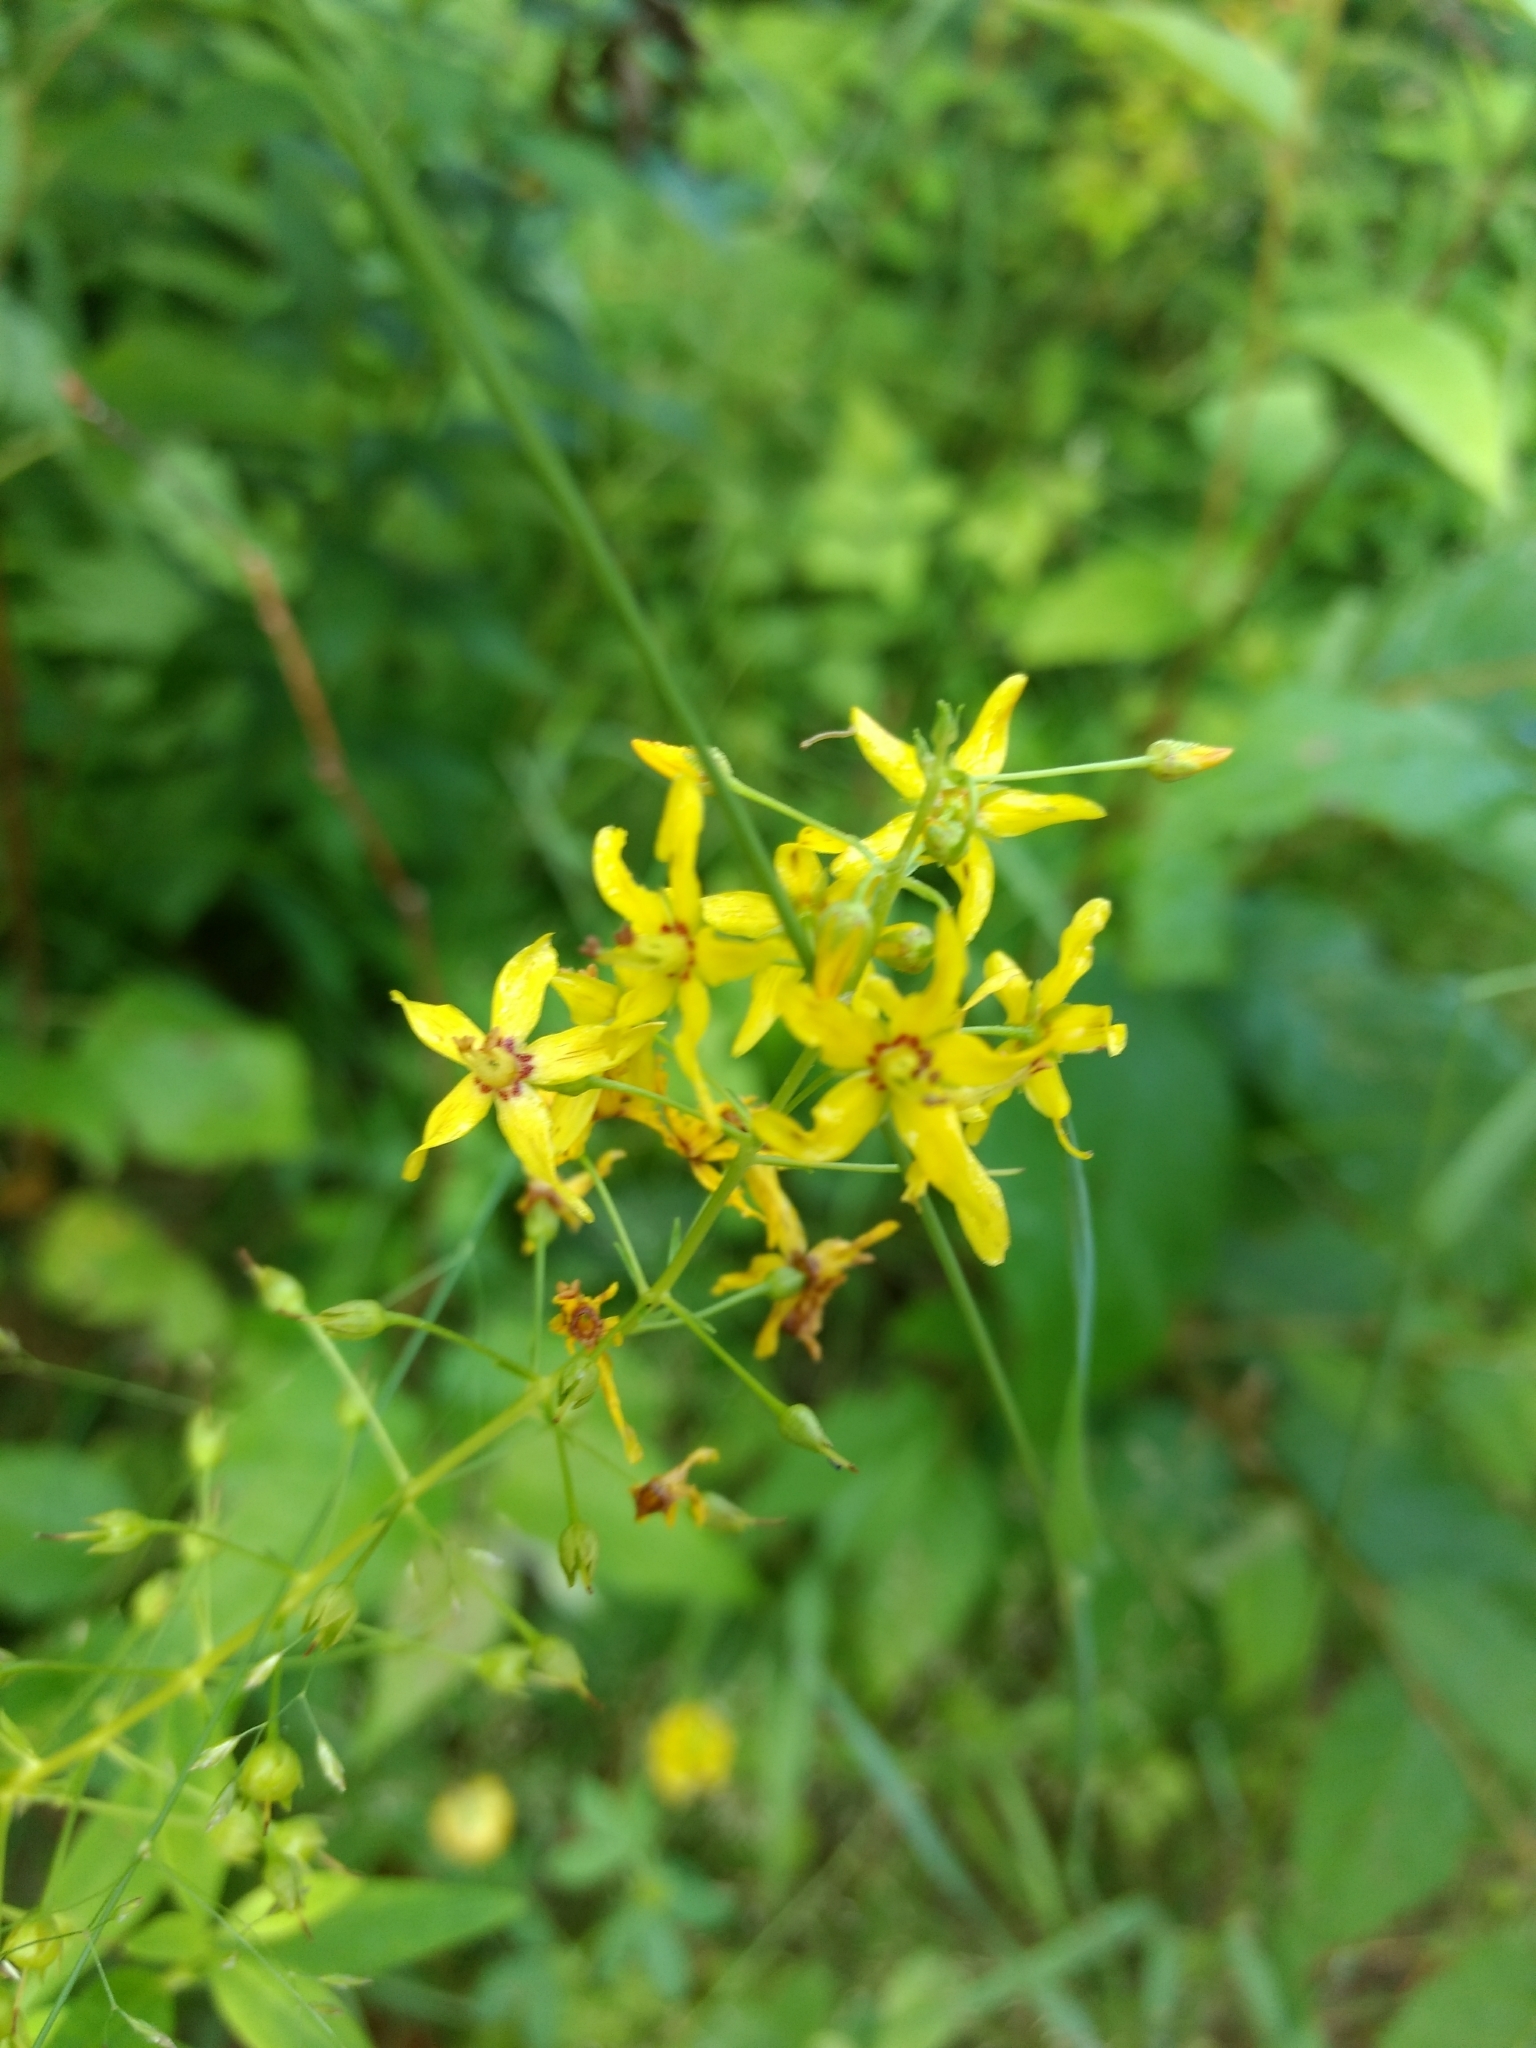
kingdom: Plantae
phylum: Tracheophyta
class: Magnoliopsida
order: Ericales
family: Primulaceae
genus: Lysimachia
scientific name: Lysimachia terrestris
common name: Lake loosestrife
